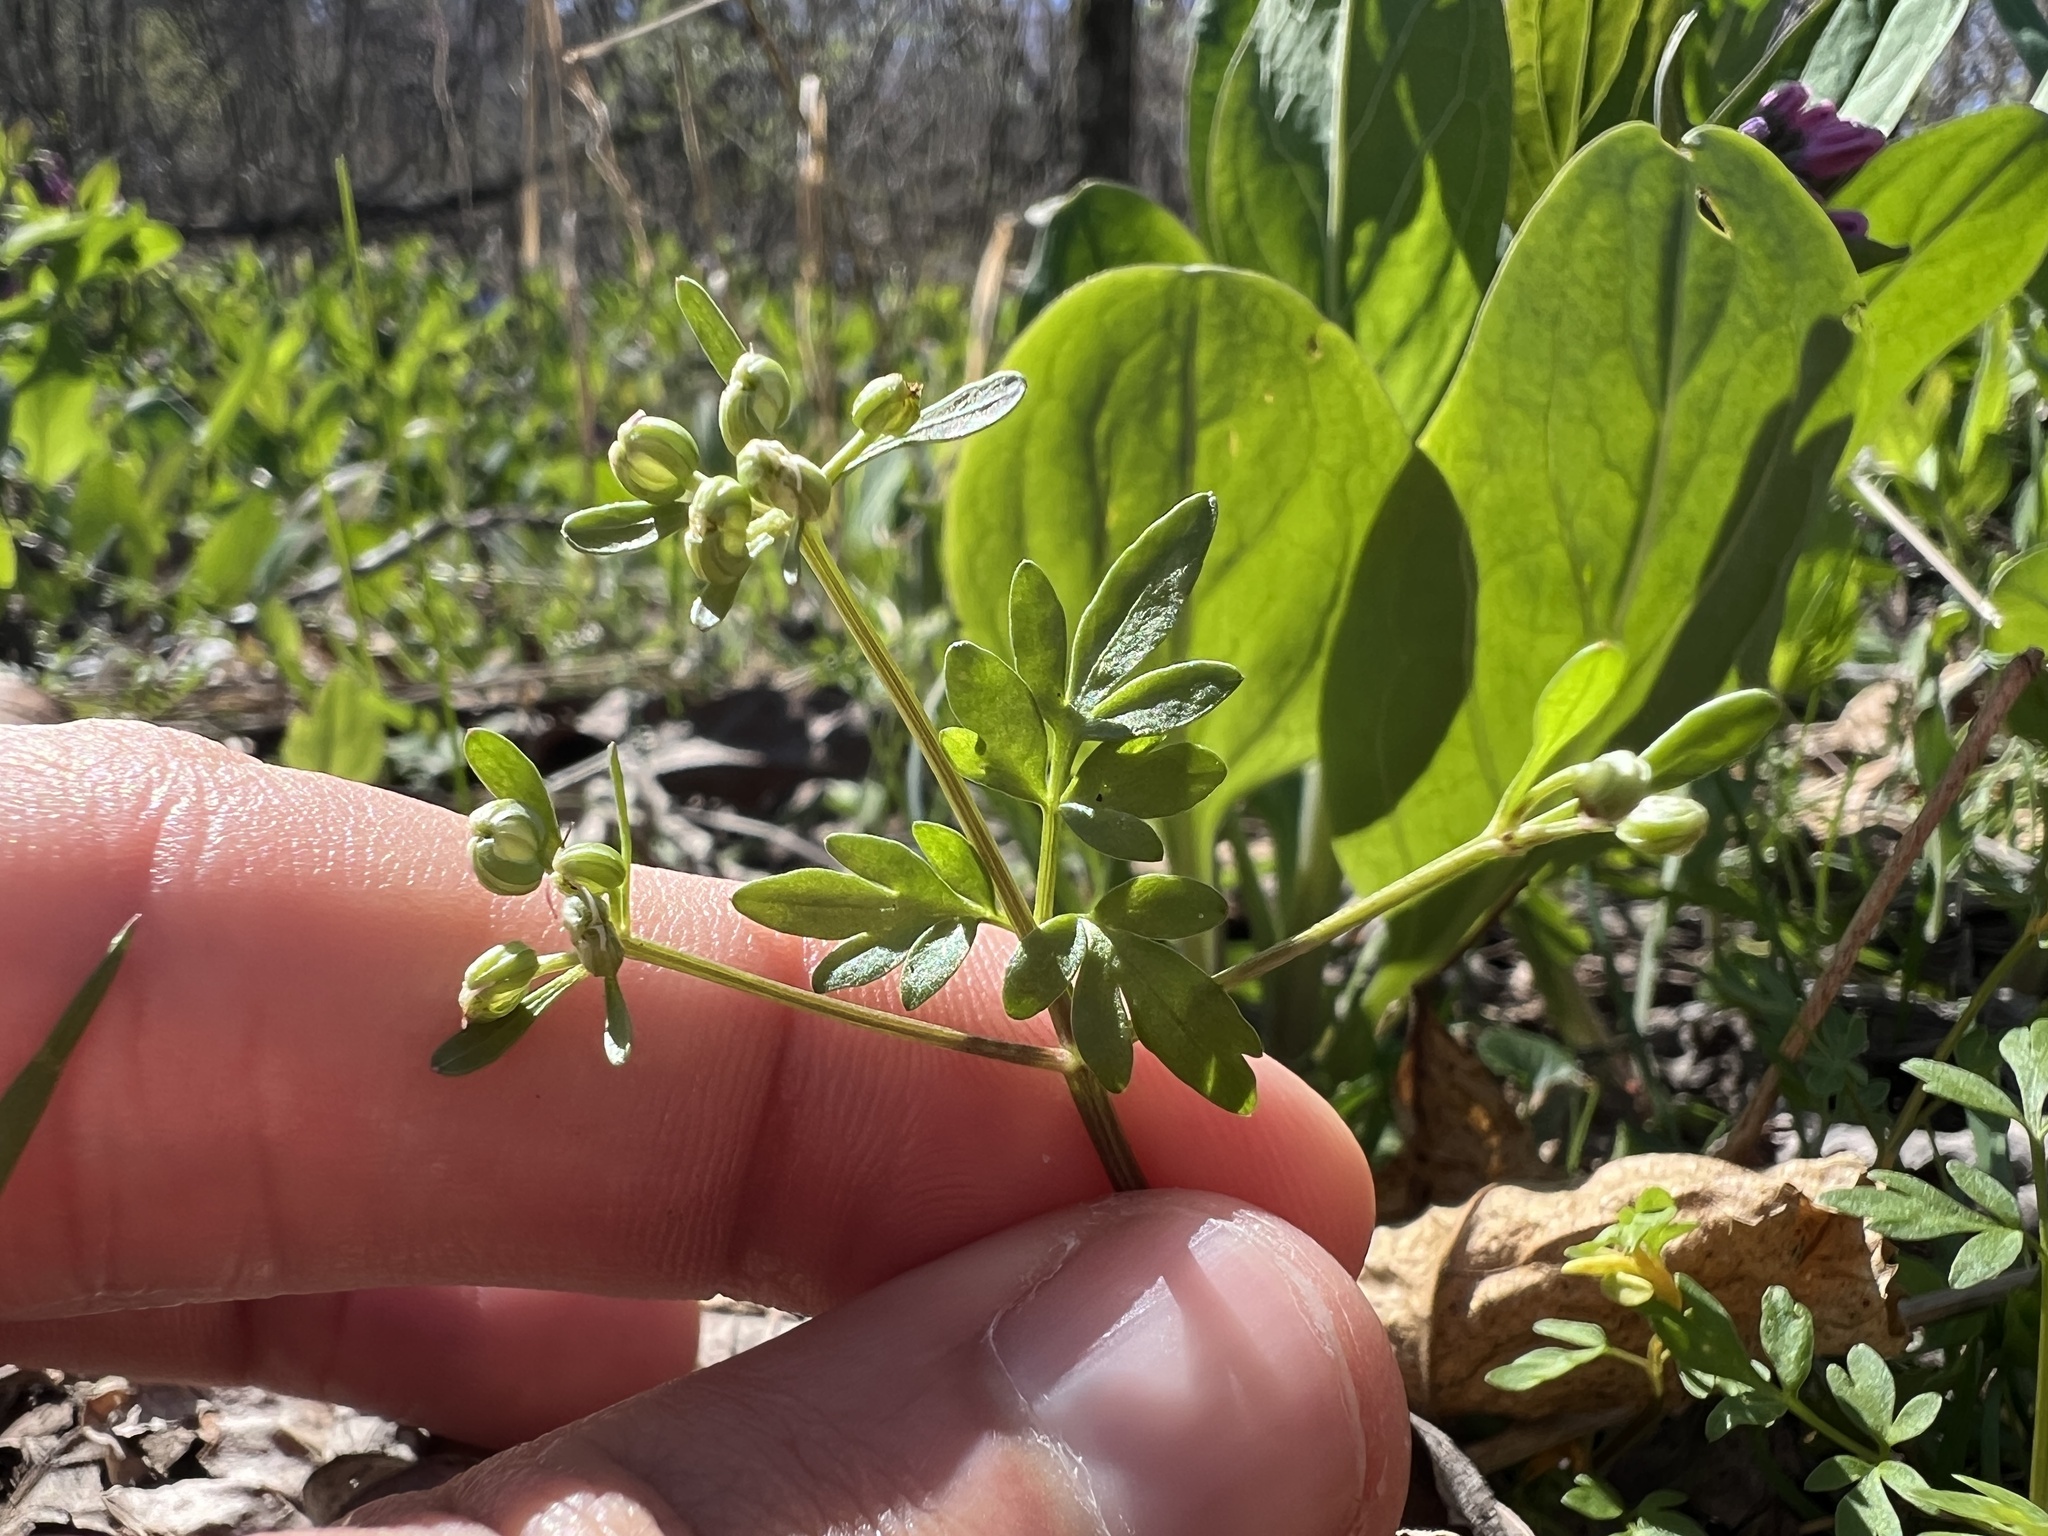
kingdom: Plantae
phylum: Tracheophyta
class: Magnoliopsida
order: Apiales
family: Apiaceae
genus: Erigenia
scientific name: Erigenia bulbosa
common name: Pepper-and-salt
